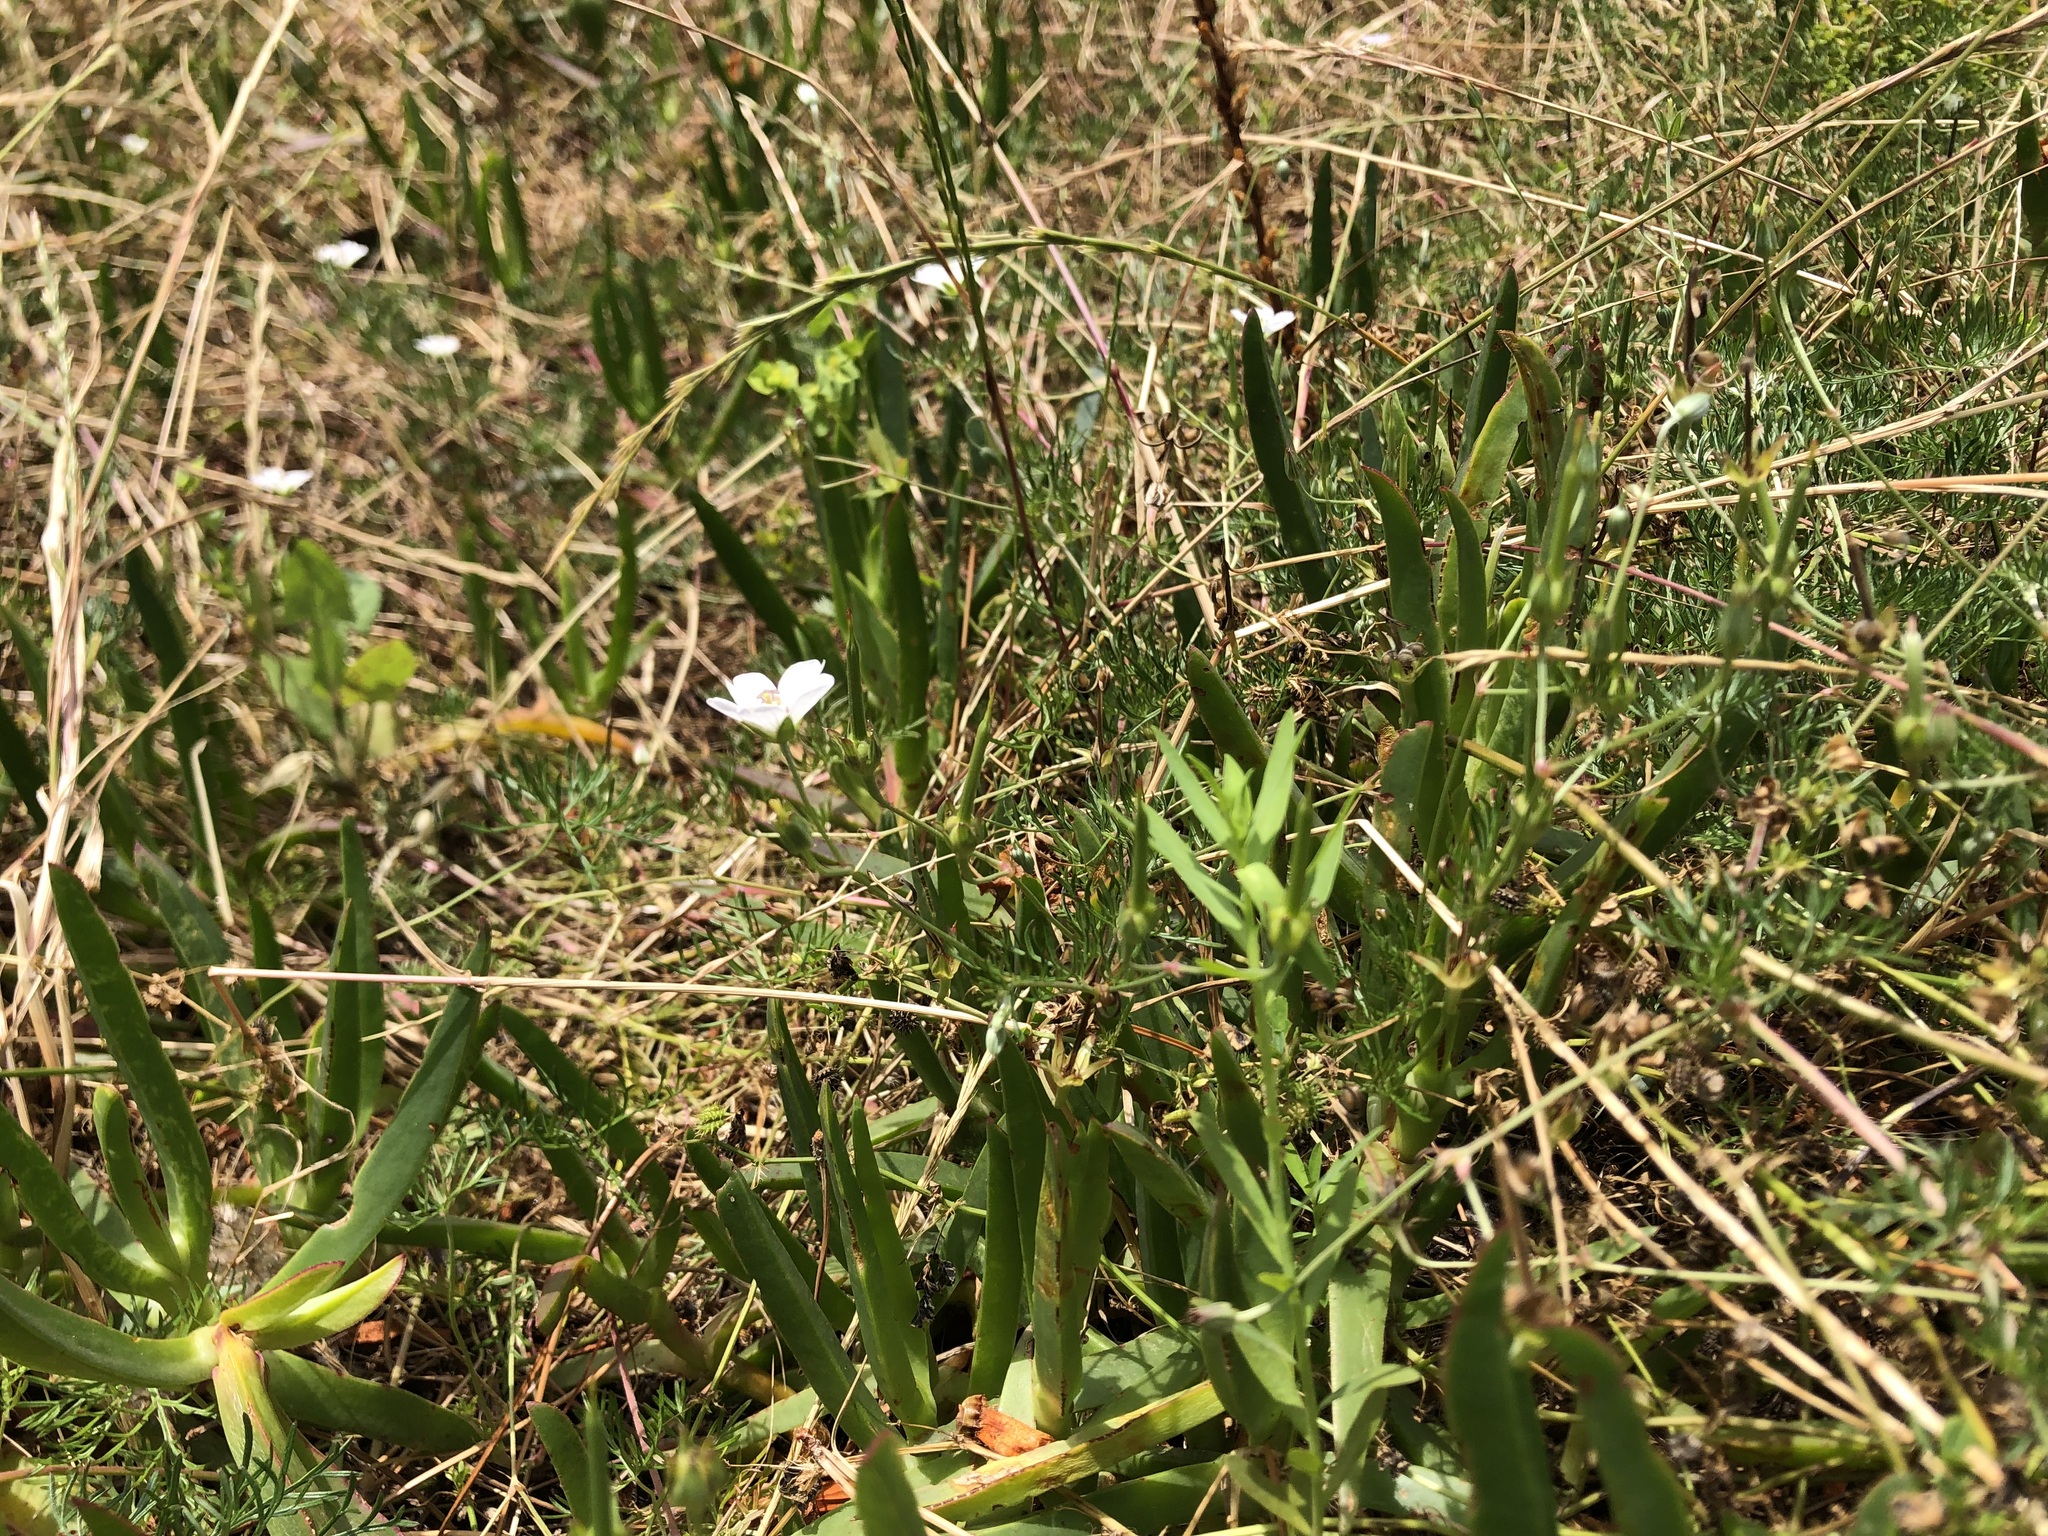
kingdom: Plantae
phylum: Tracheophyta
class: Magnoliopsida
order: Geraniales
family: Geraniaceae
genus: Geranium
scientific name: Geranium incanum
